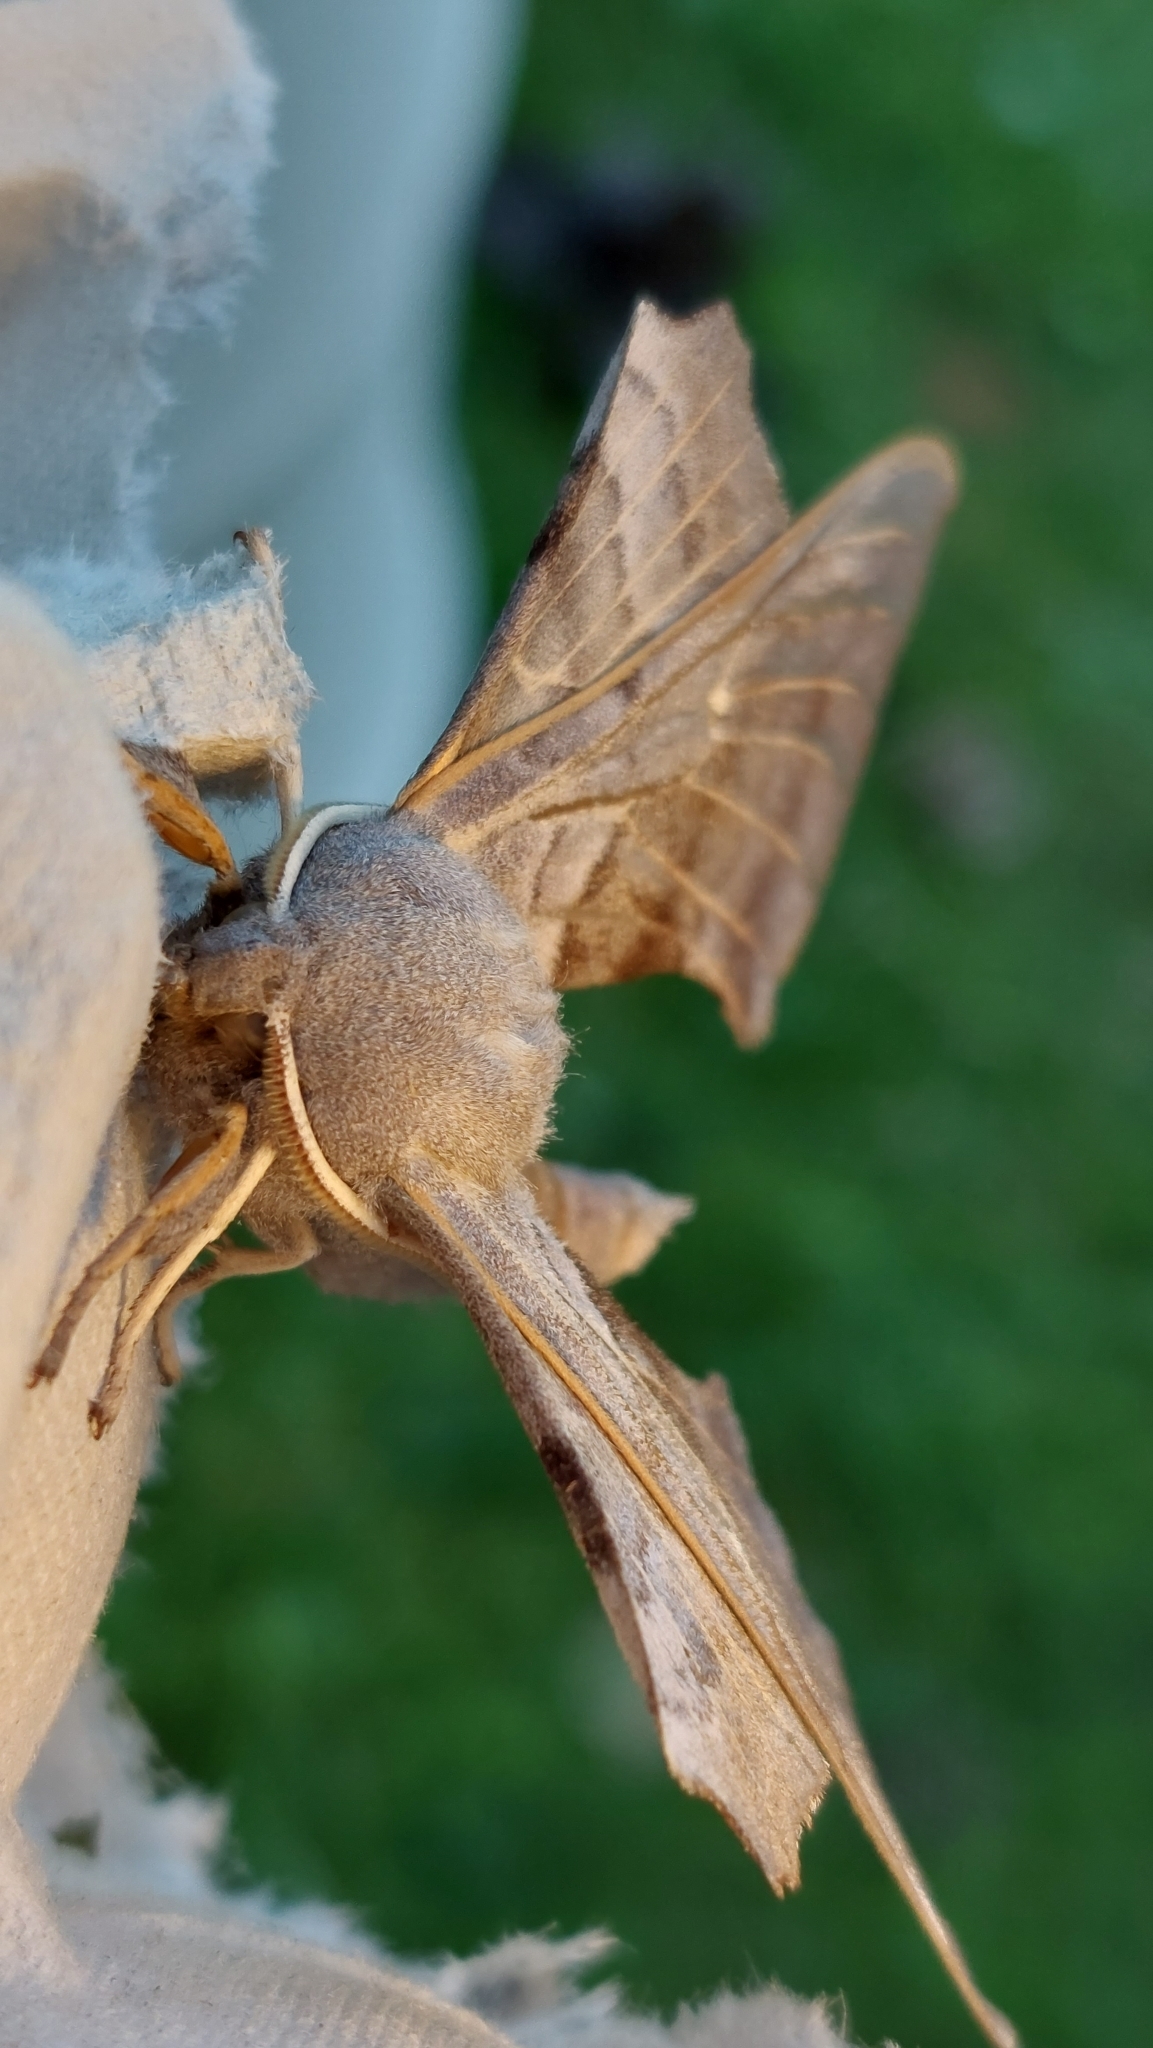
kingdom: Animalia
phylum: Arthropoda
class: Insecta
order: Lepidoptera
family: Sphingidae
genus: Laothoe
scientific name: Laothoe populi
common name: Poplar hawk-moth
